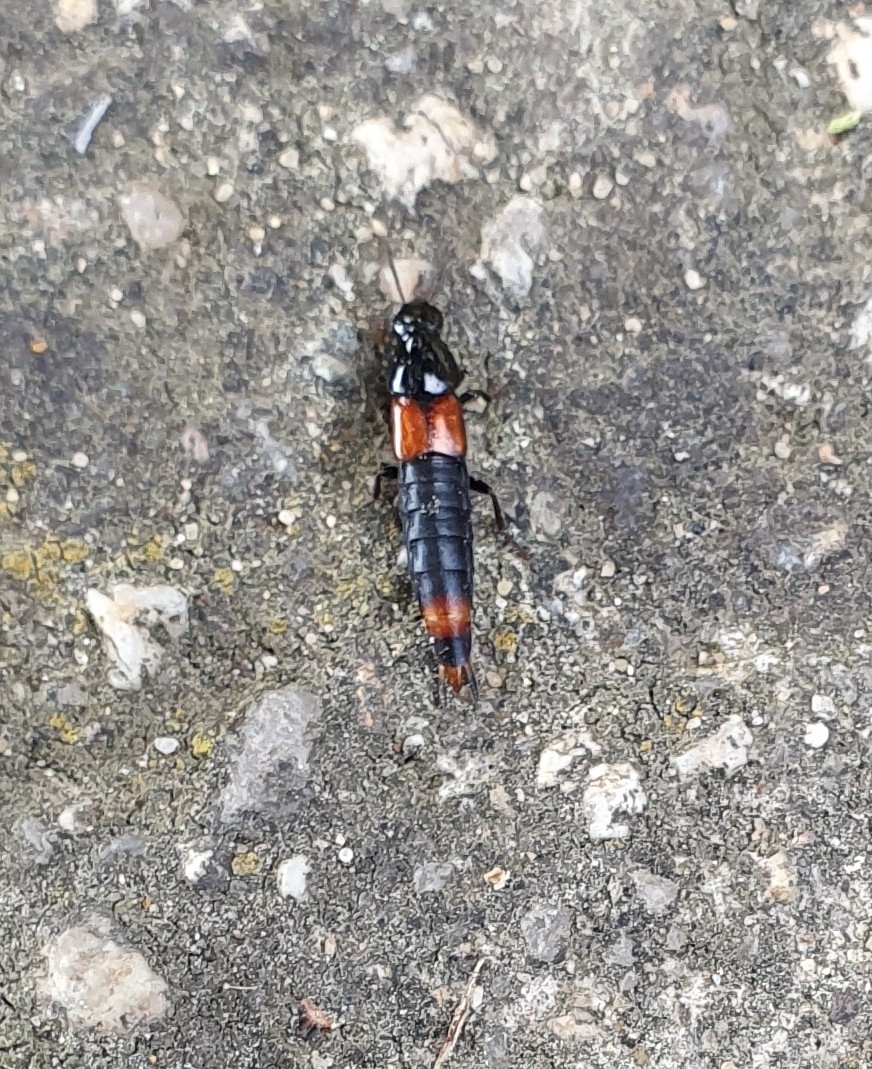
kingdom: Animalia
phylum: Arthropoda
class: Insecta
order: Coleoptera
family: Staphylinidae
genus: Astrapaeus
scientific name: Astrapaeus ulmi
